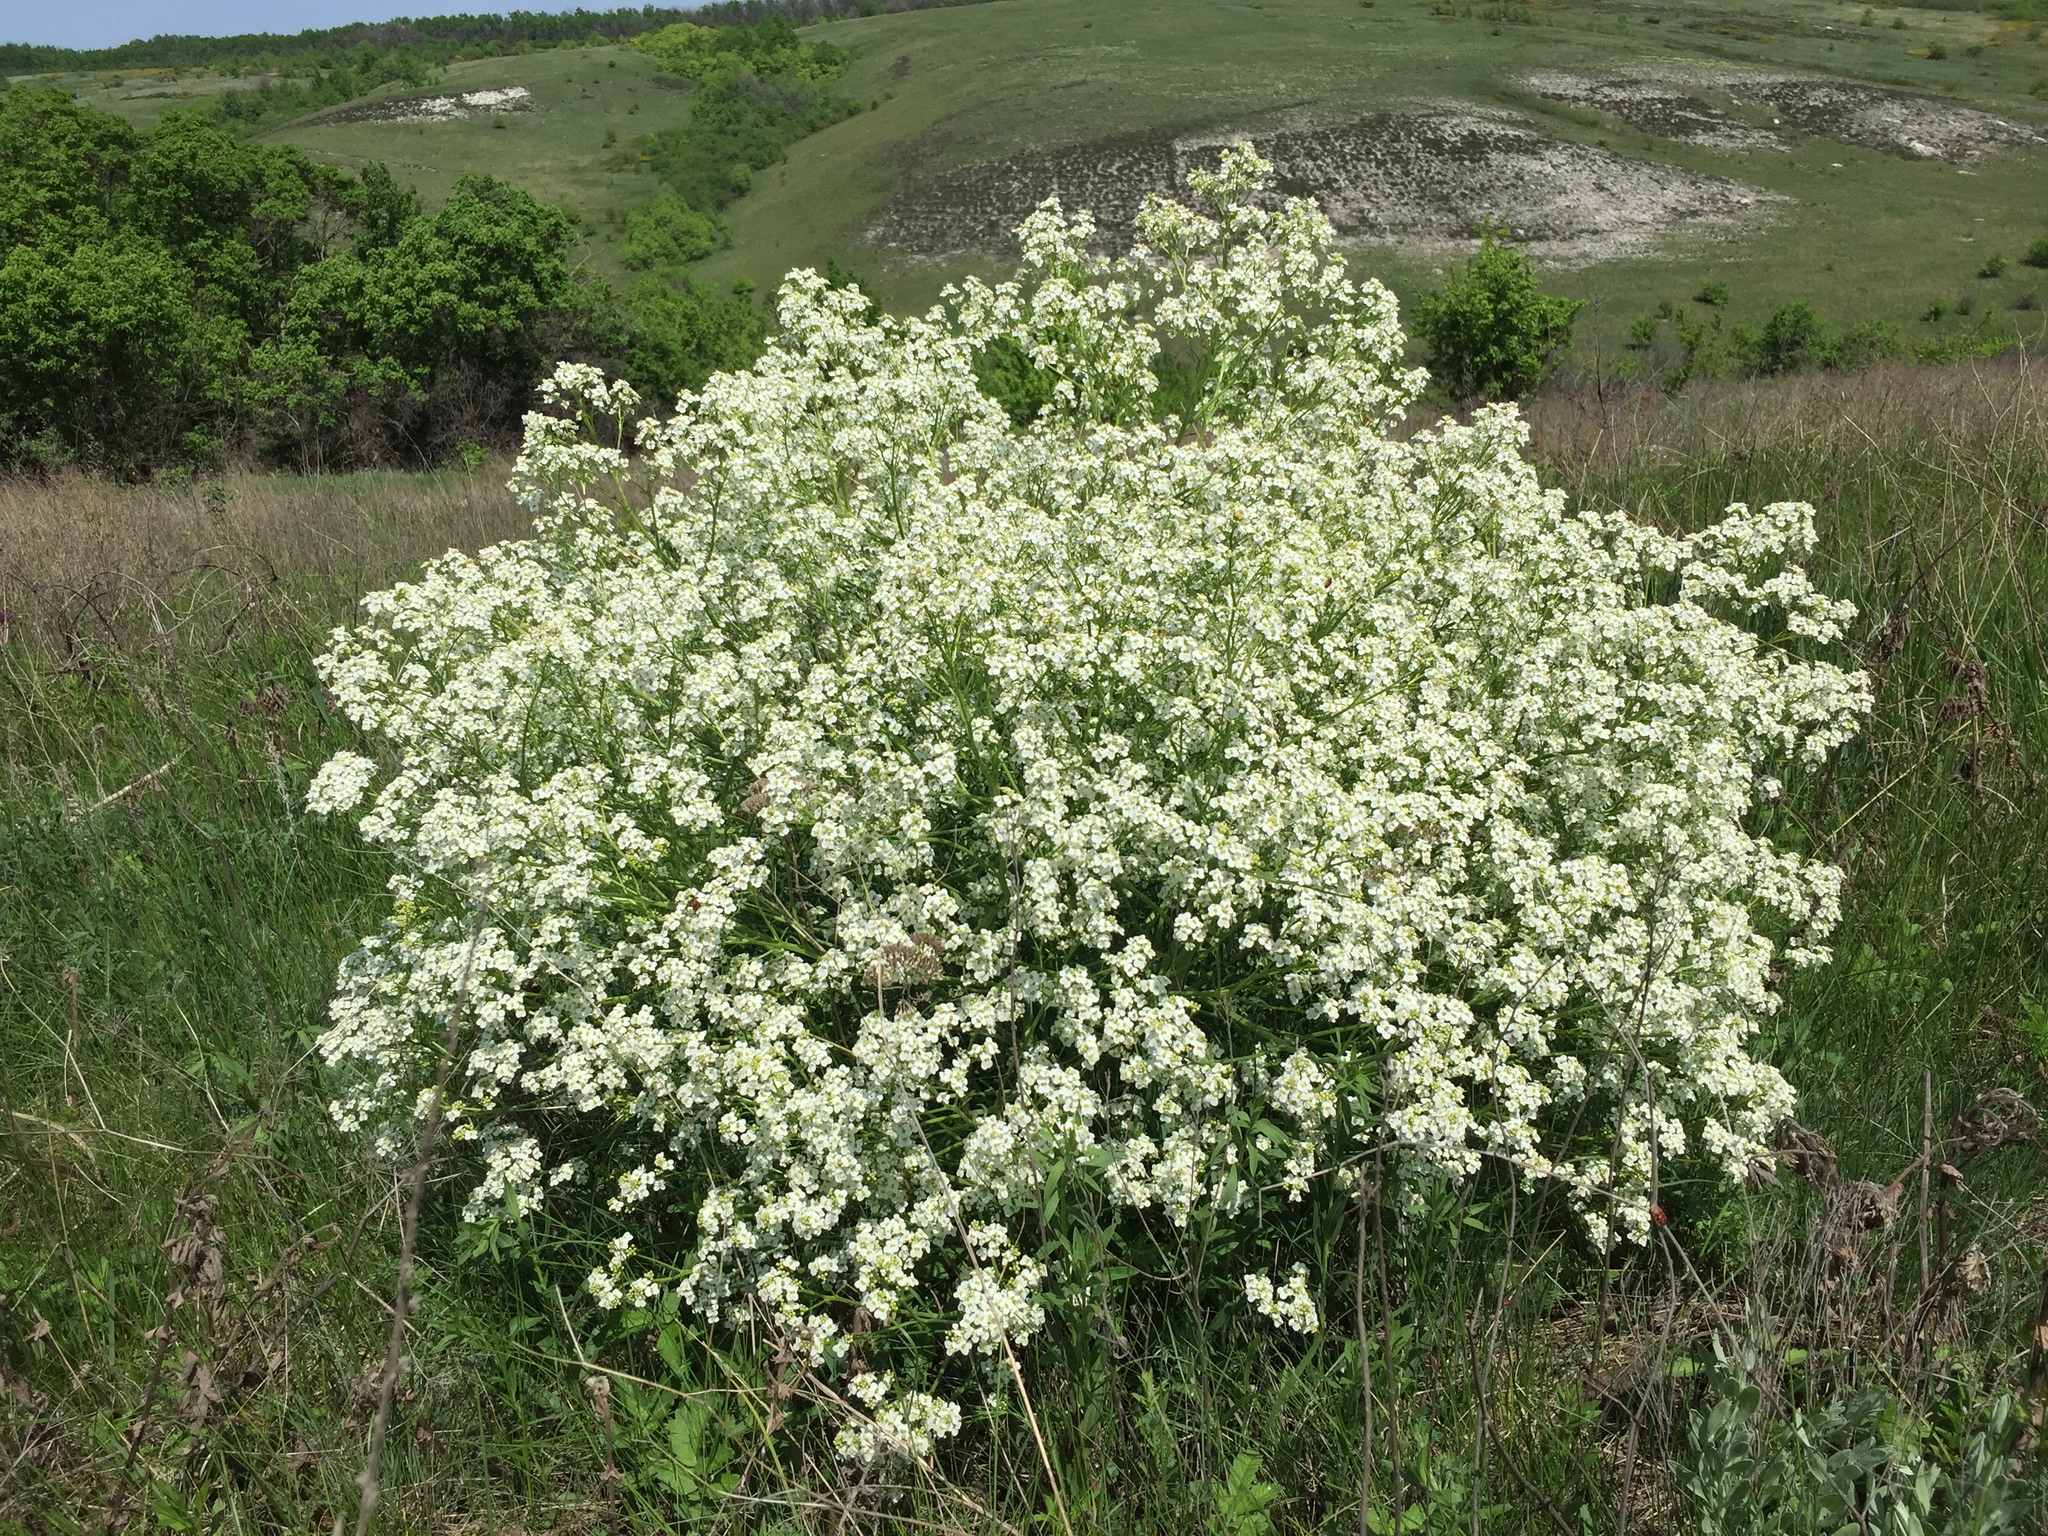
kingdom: Plantae
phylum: Tracheophyta
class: Magnoliopsida
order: Brassicales
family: Brassicaceae
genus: Crambe
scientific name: Crambe tataria
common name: Tartarian breadplant
